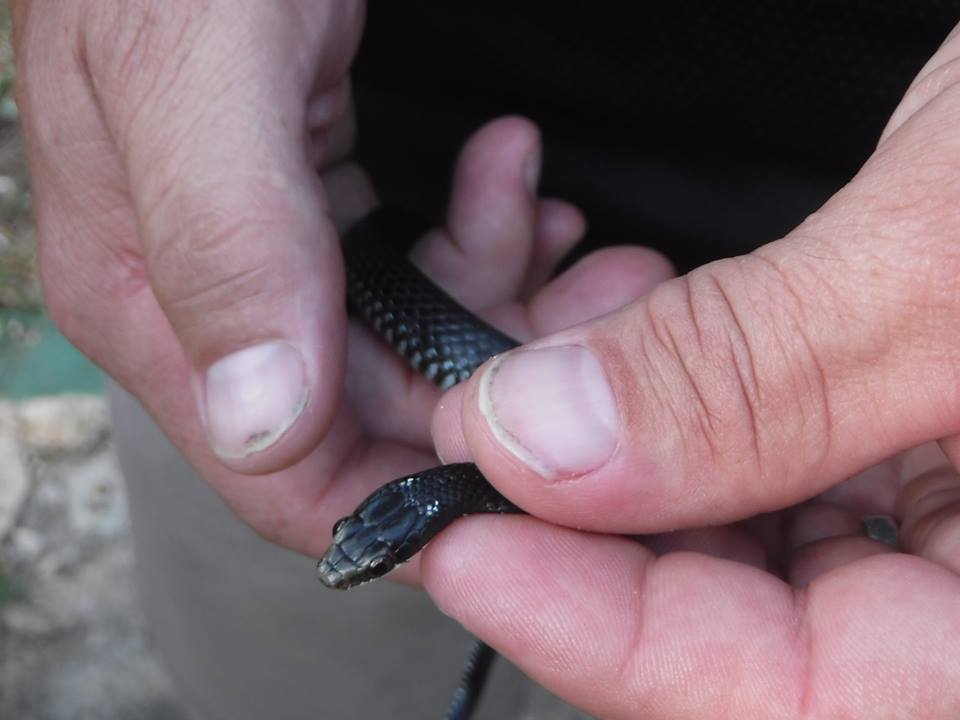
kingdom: Animalia
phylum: Chordata
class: Squamata
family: Colubridae
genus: Caraiba
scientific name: Caraiba andreae
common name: Cuban lesser racer
